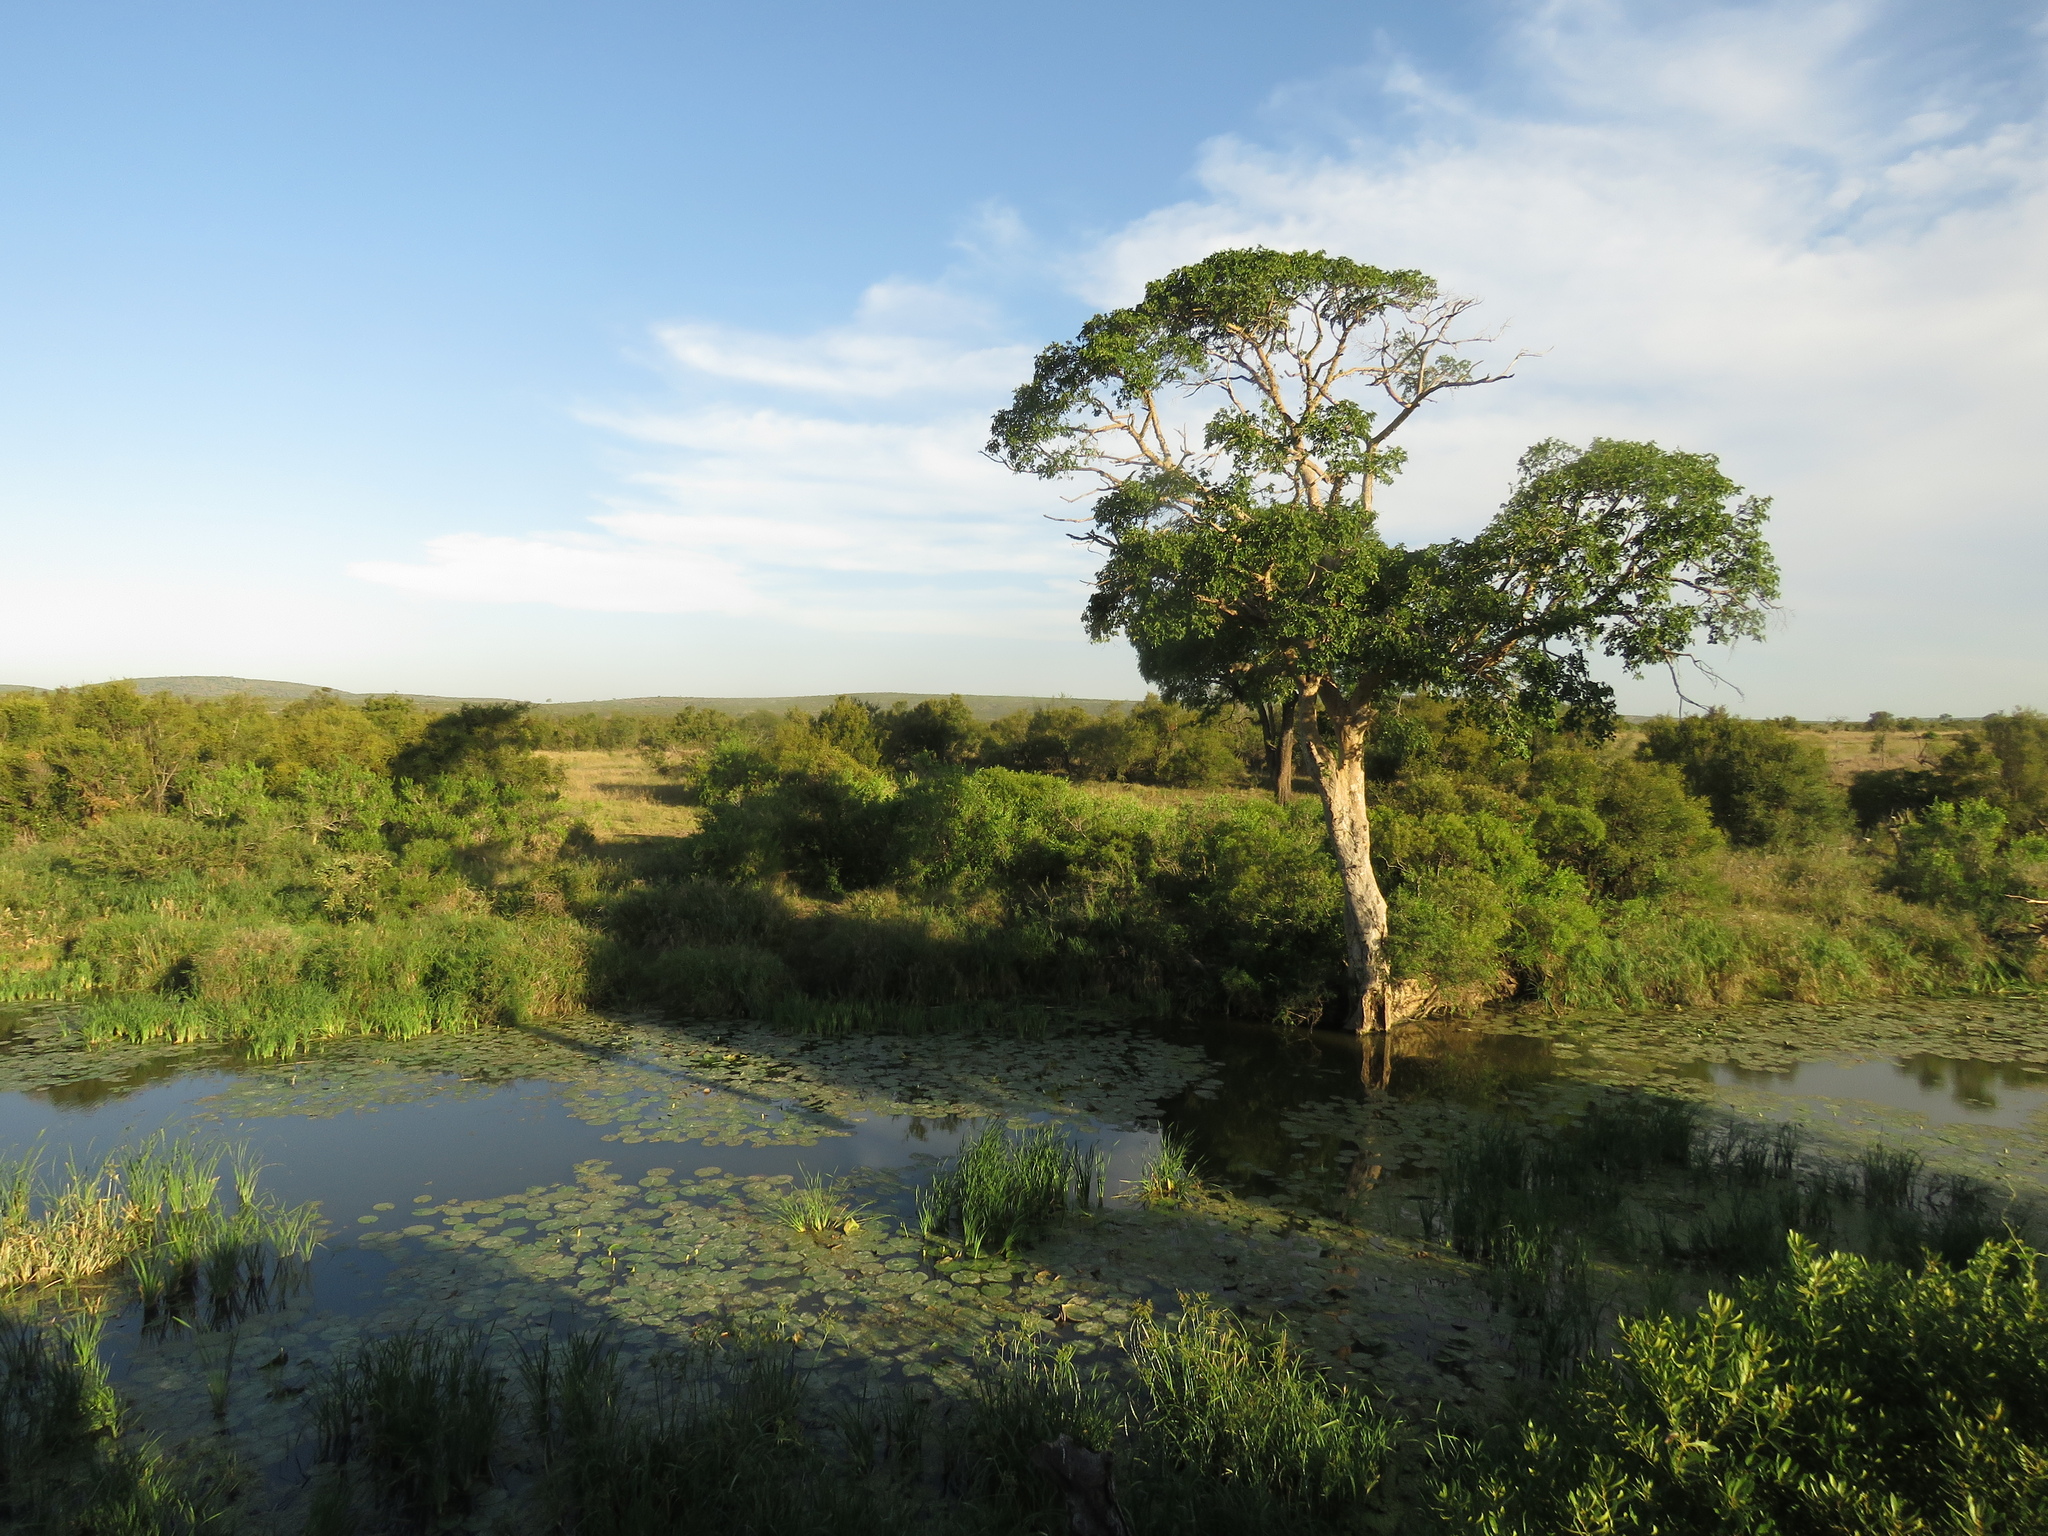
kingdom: Plantae
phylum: Tracheophyta
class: Magnoliopsida
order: Rosales
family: Moraceae
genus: Ficus
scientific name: Ficus sycomorus
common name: Sycomore
